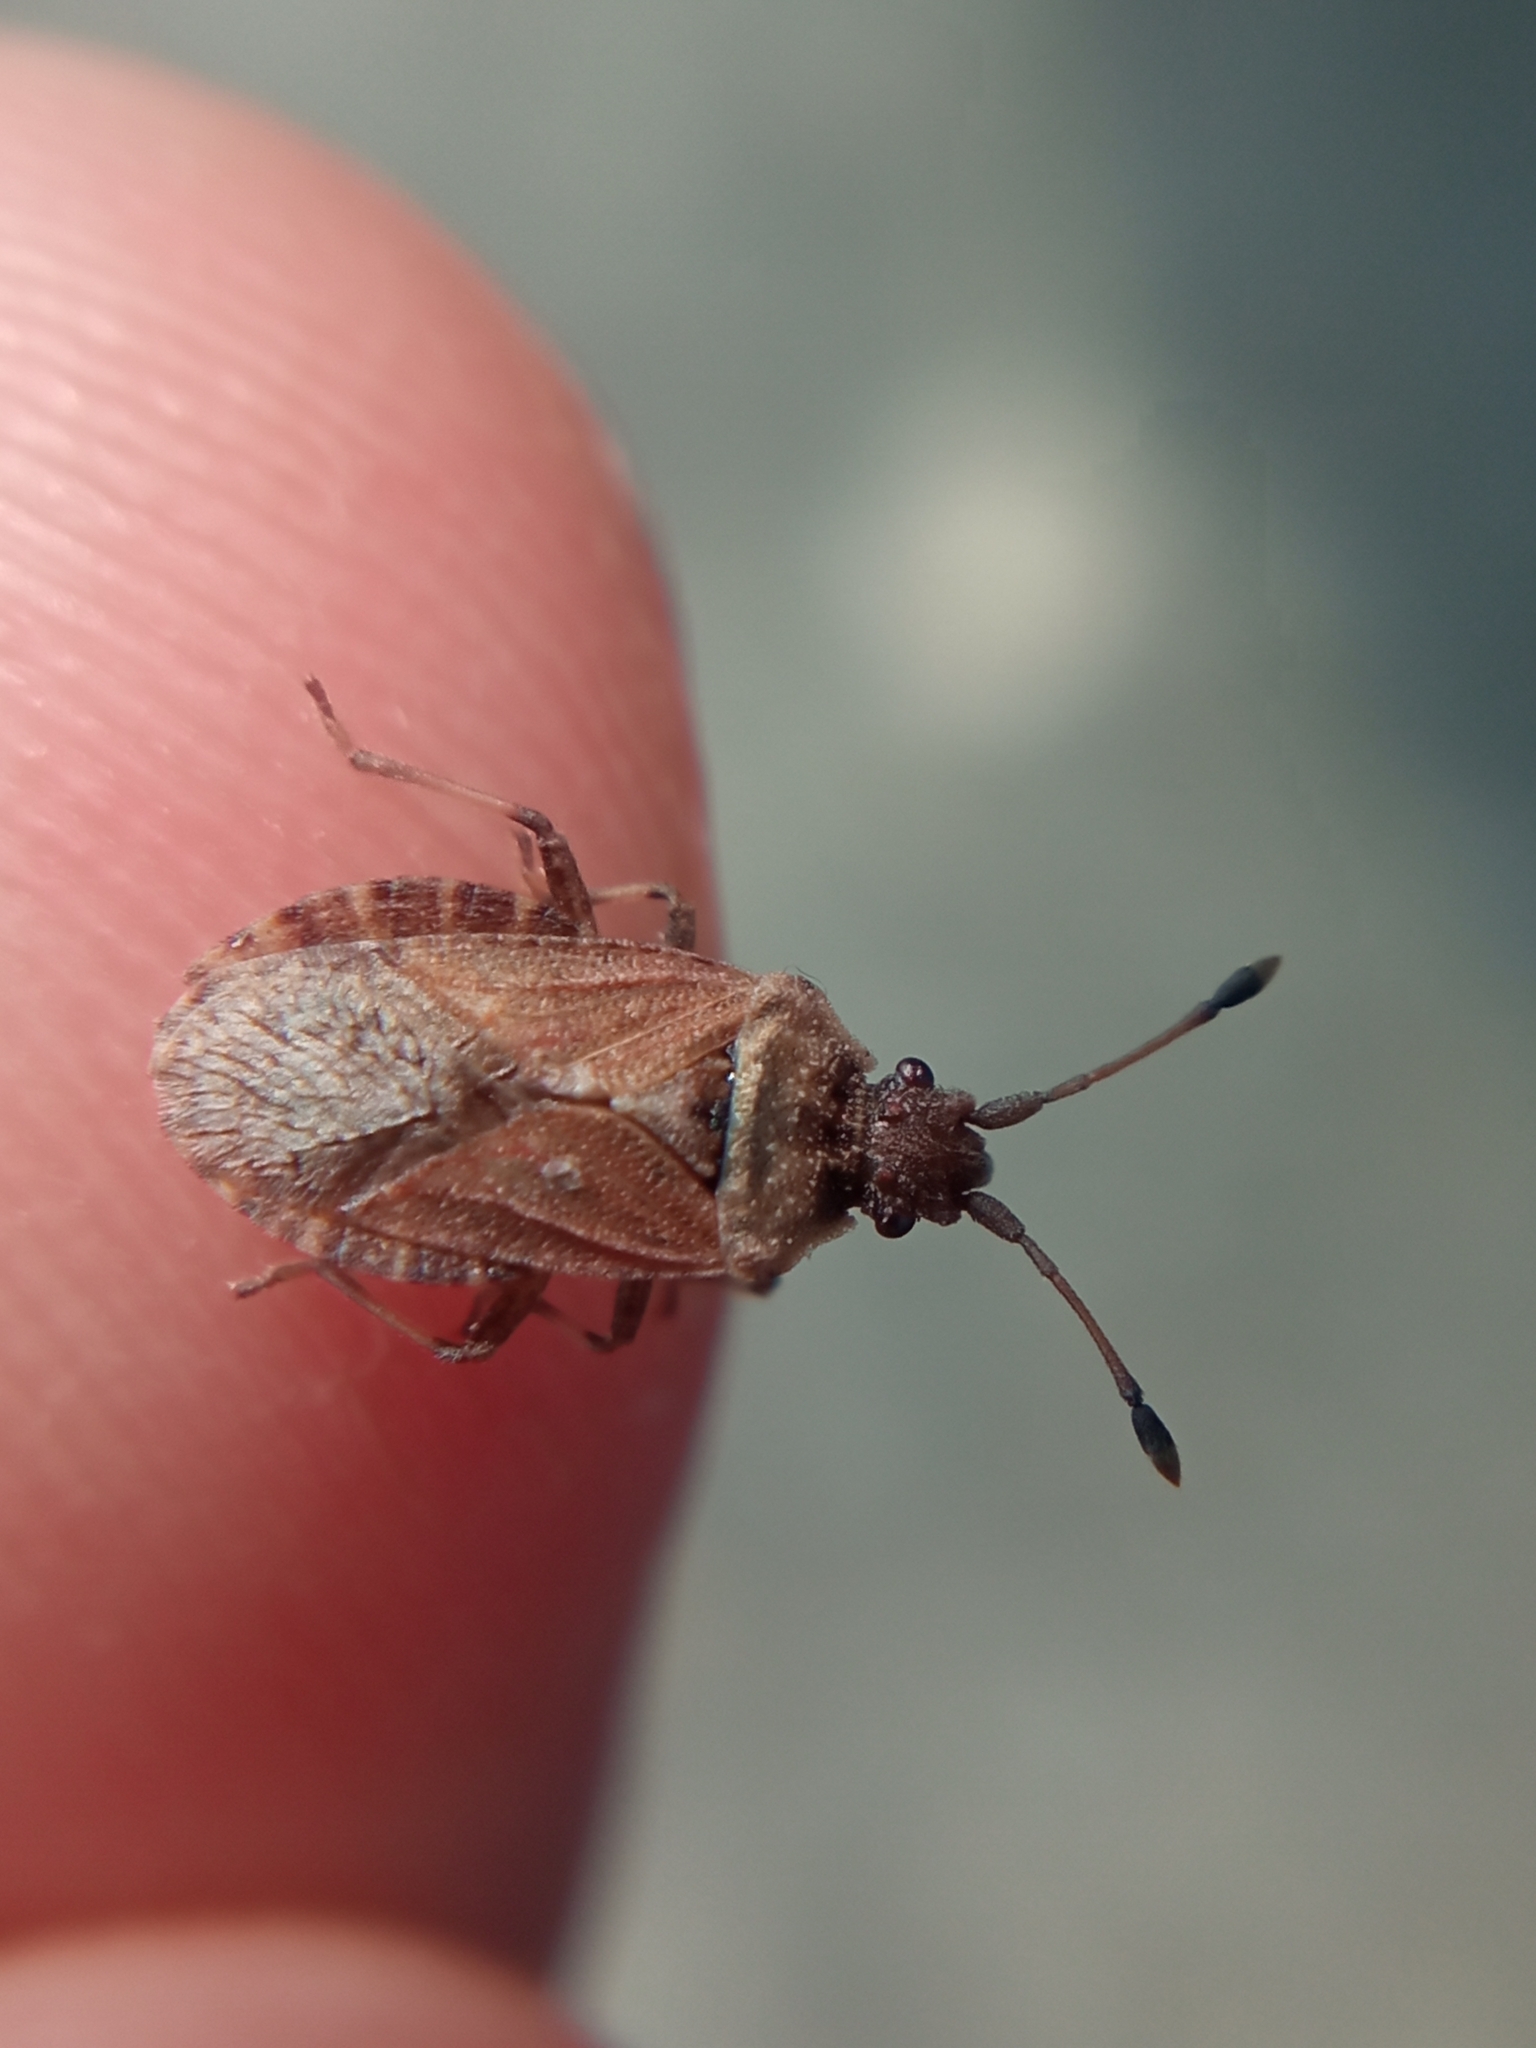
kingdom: Animalia
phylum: Arthropoda
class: Insecta
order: Hemiptera
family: Coreidae
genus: Bathysolen
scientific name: Bathysolen nubilus
